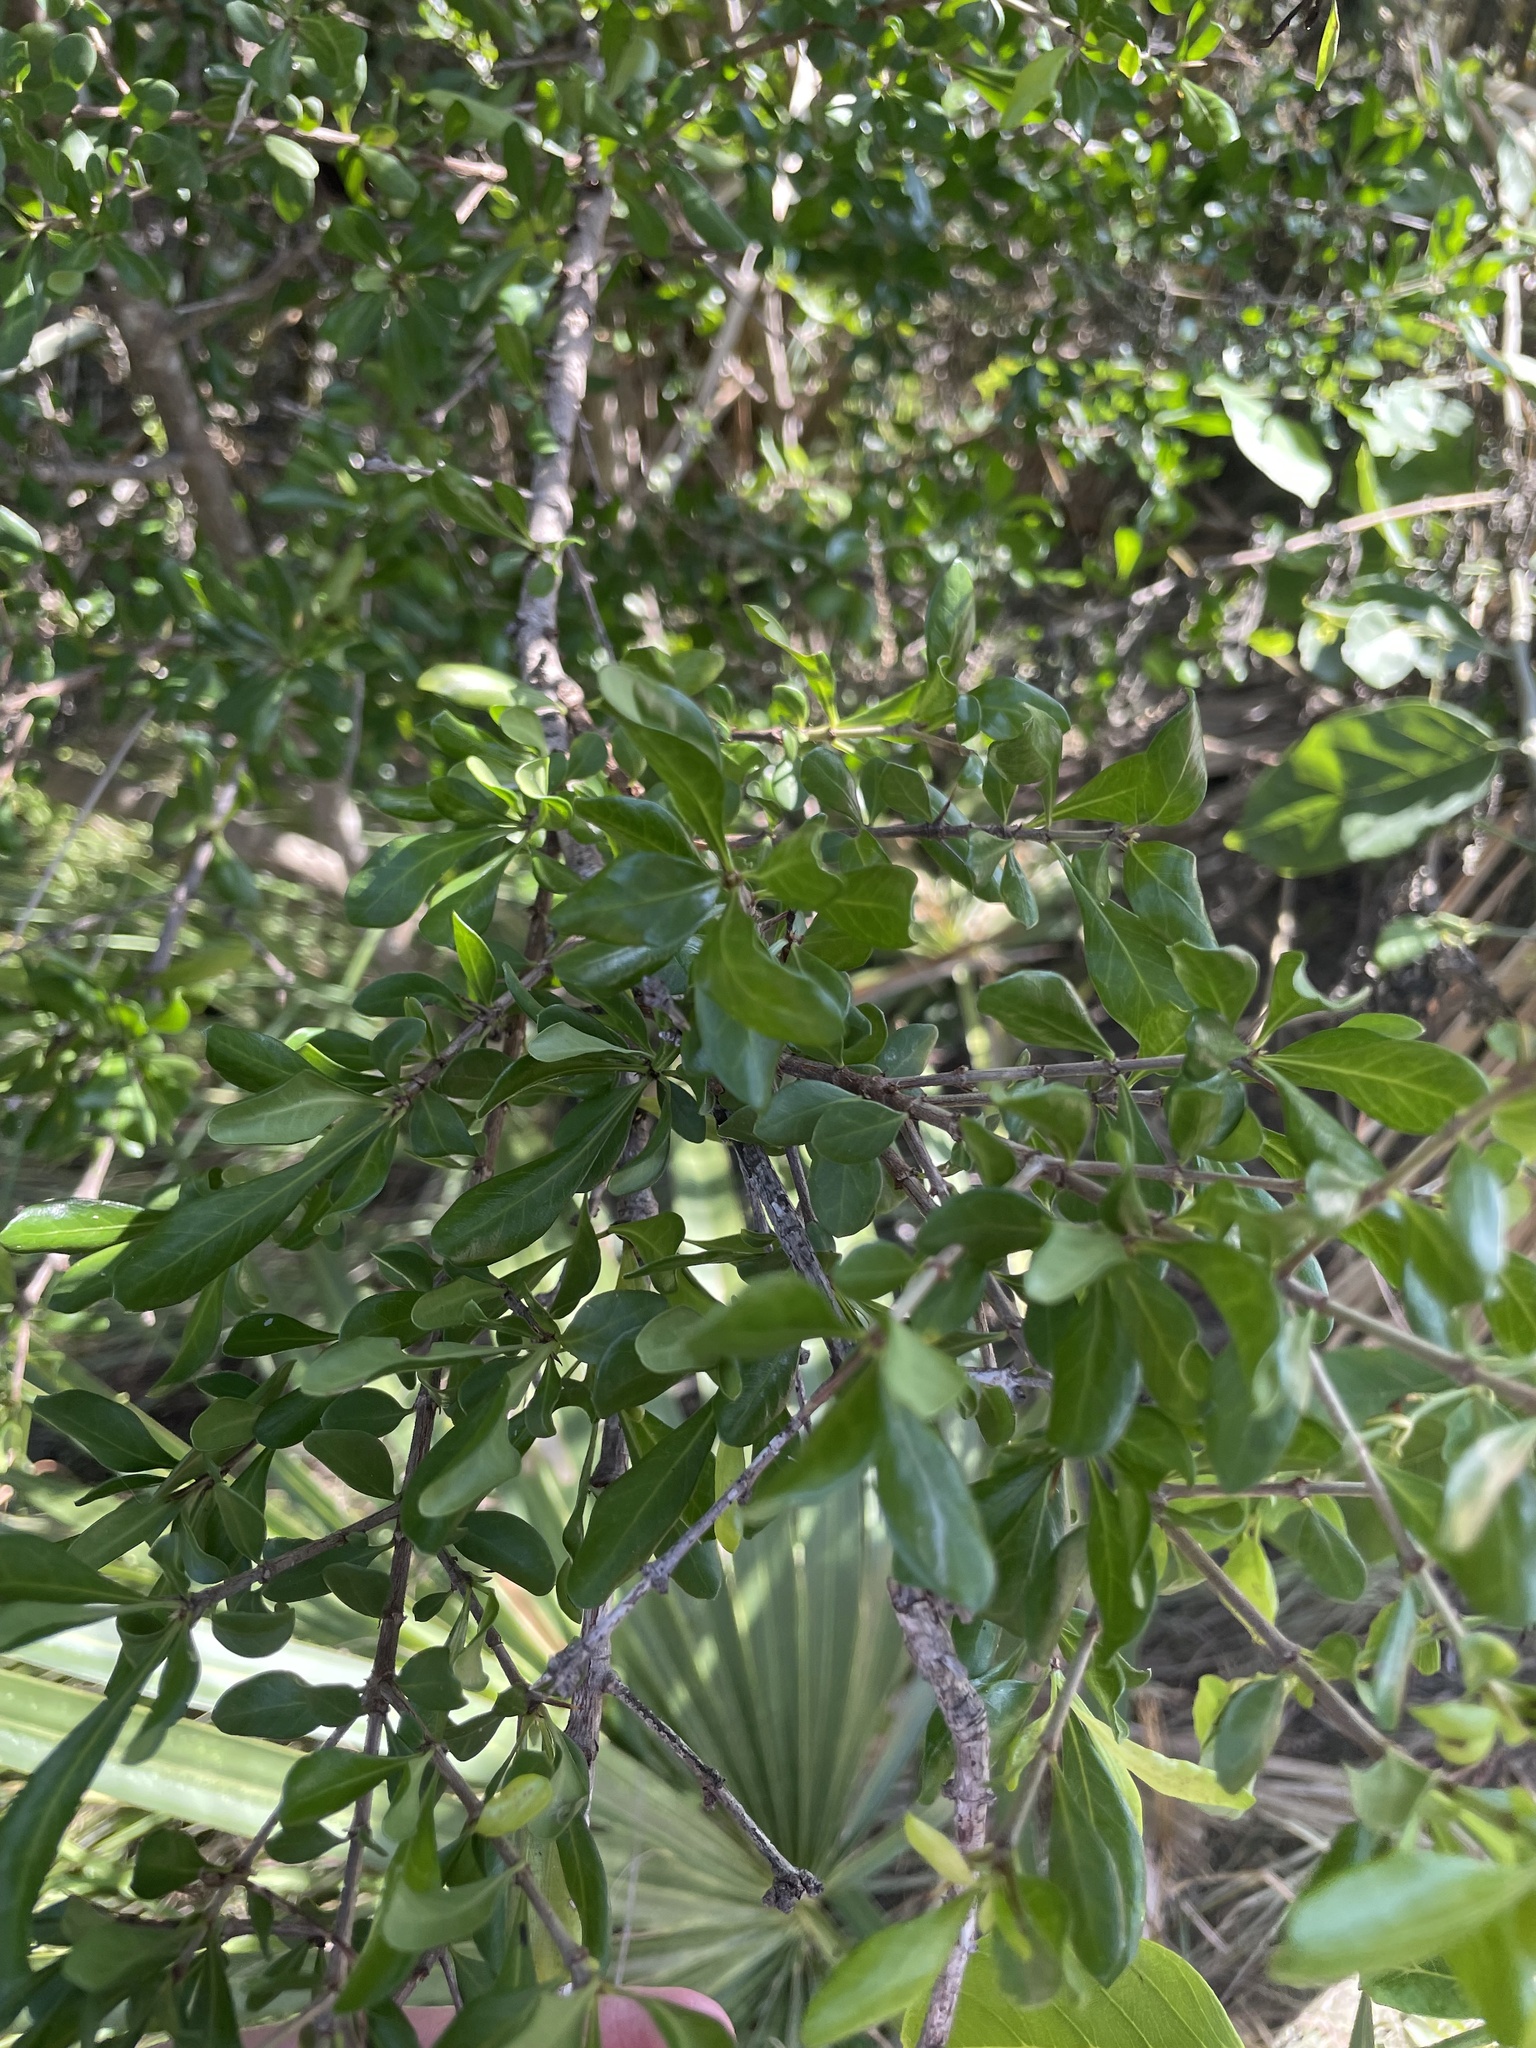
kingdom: Plantae
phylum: Tracheophyta
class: Magnoliopsida
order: Lamiales
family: Oleaceae
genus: Forestiera
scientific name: Forestiera segregata
